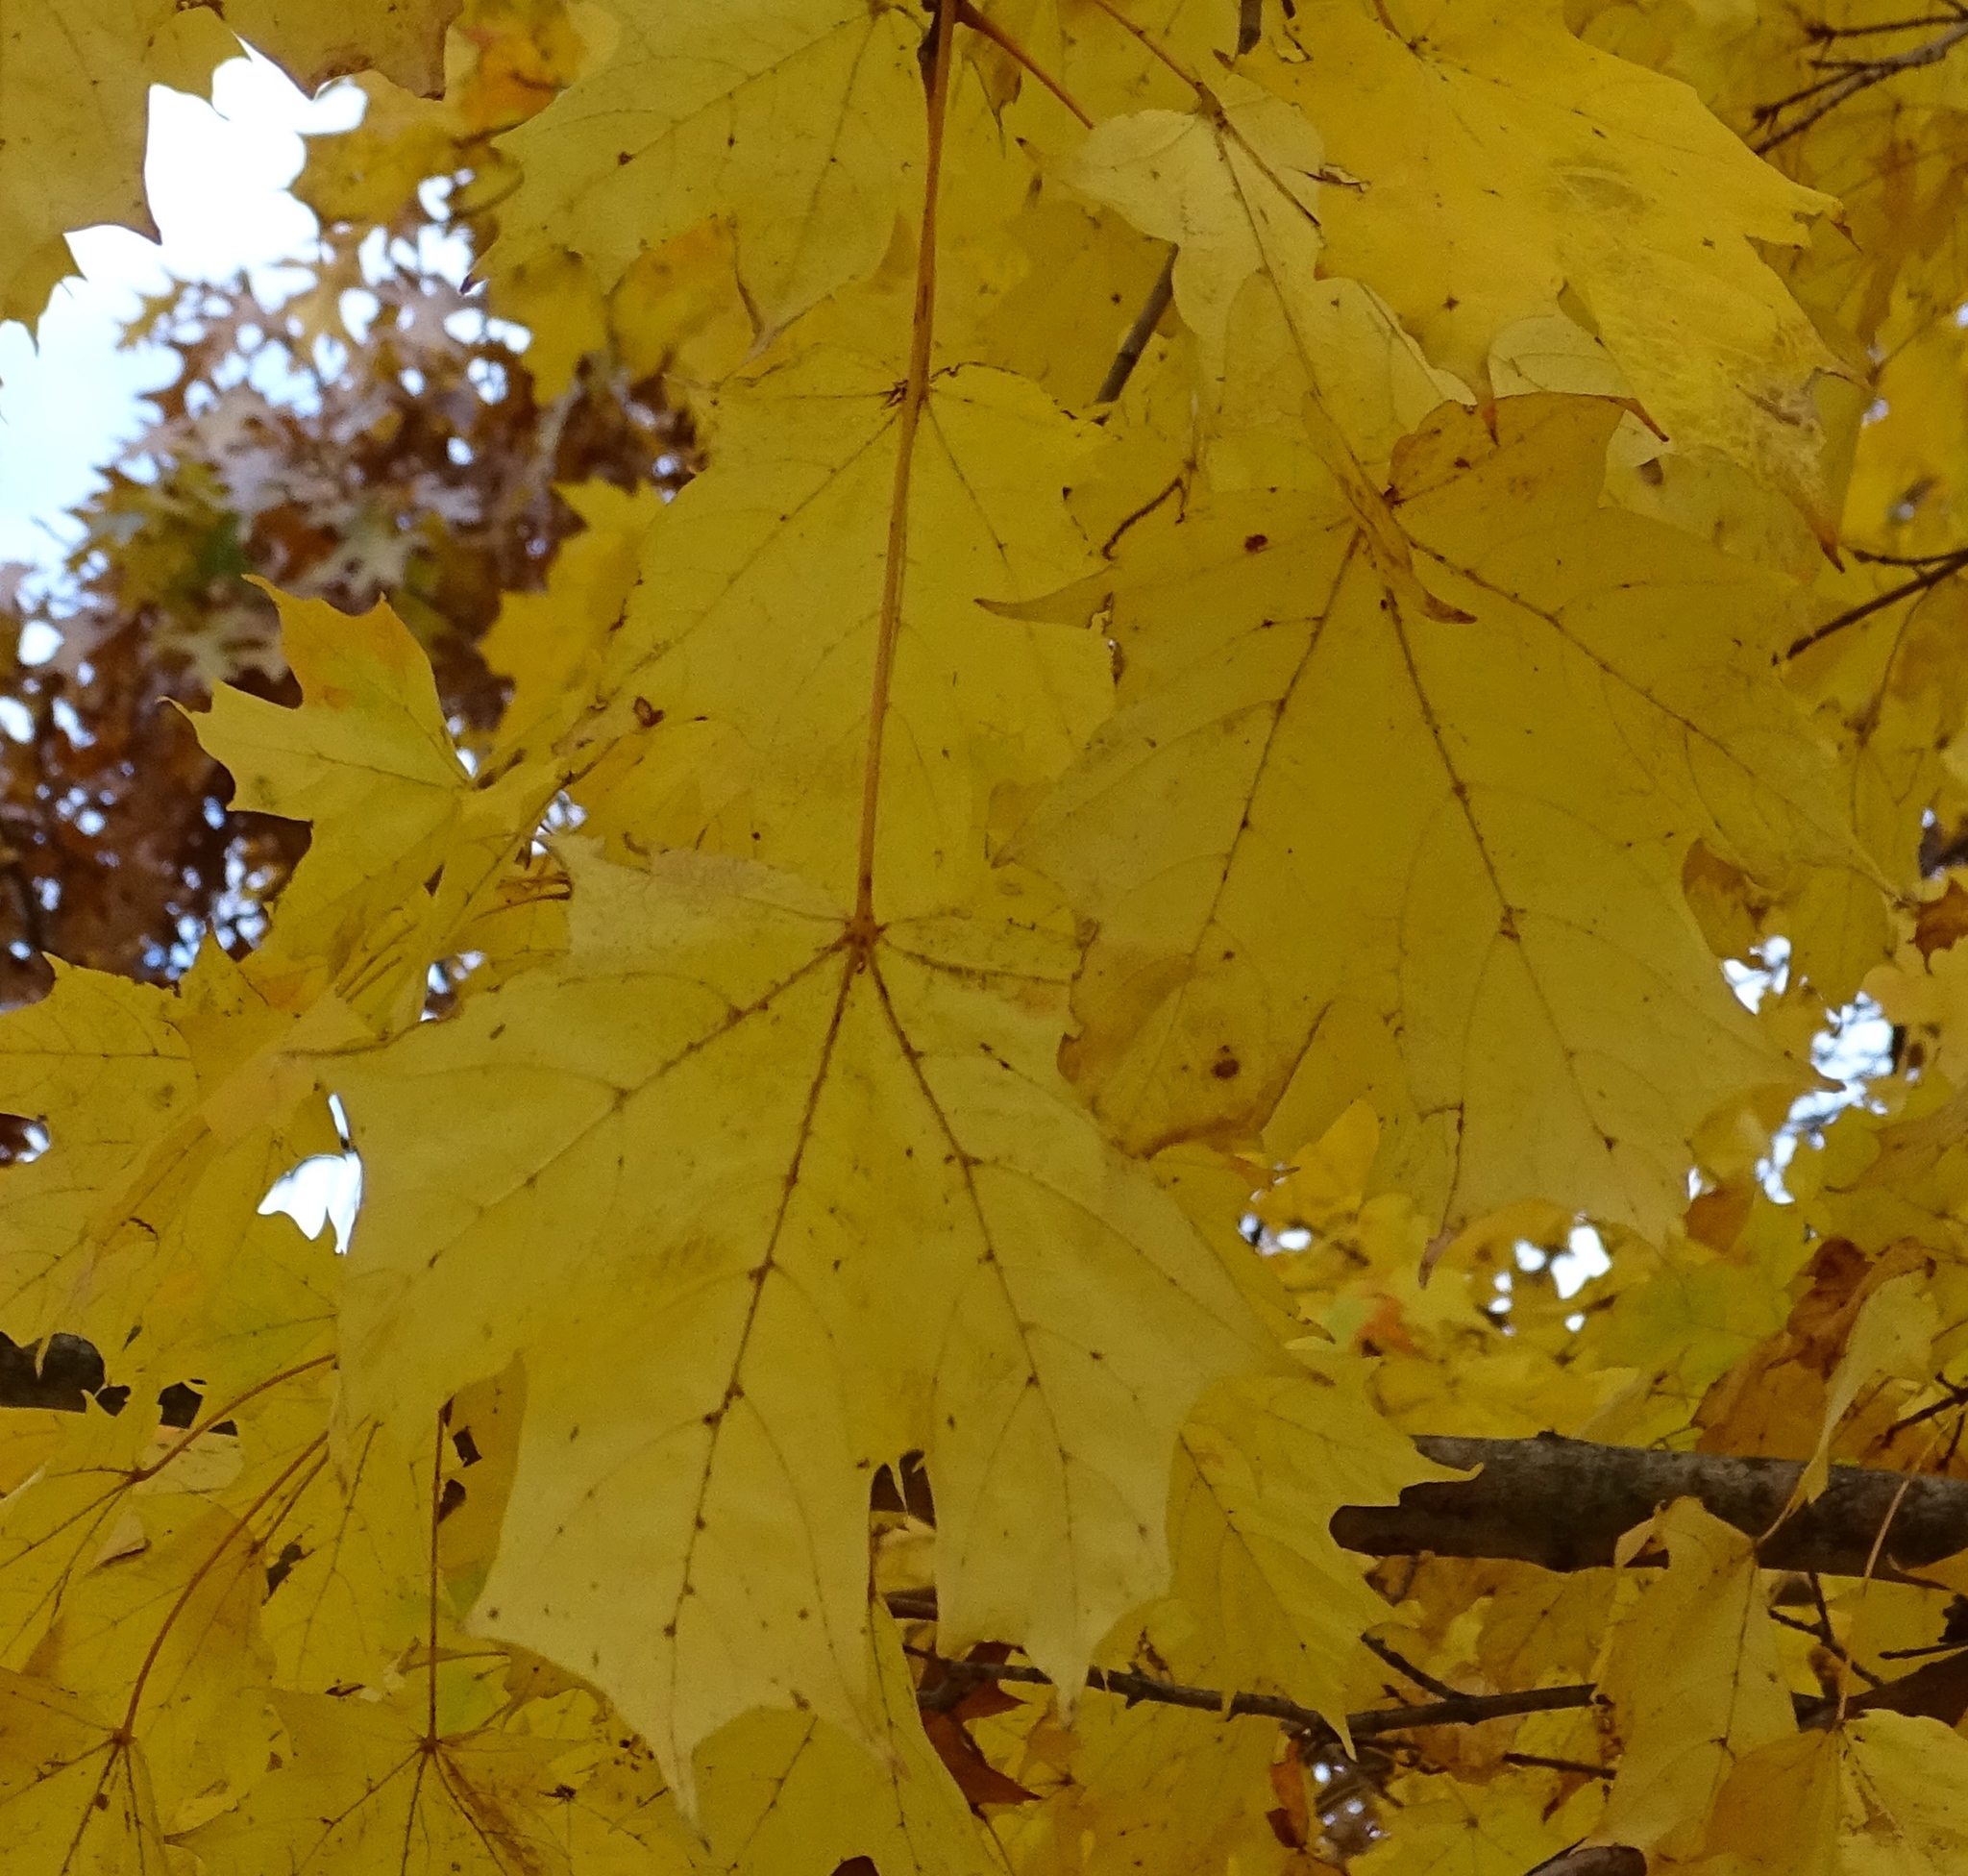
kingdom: Plantae
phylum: Tracheophyta
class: Magnoliopsida
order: Sapindales
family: Sapindaceae
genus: Acer
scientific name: Acer platanoides
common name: Norway maple
